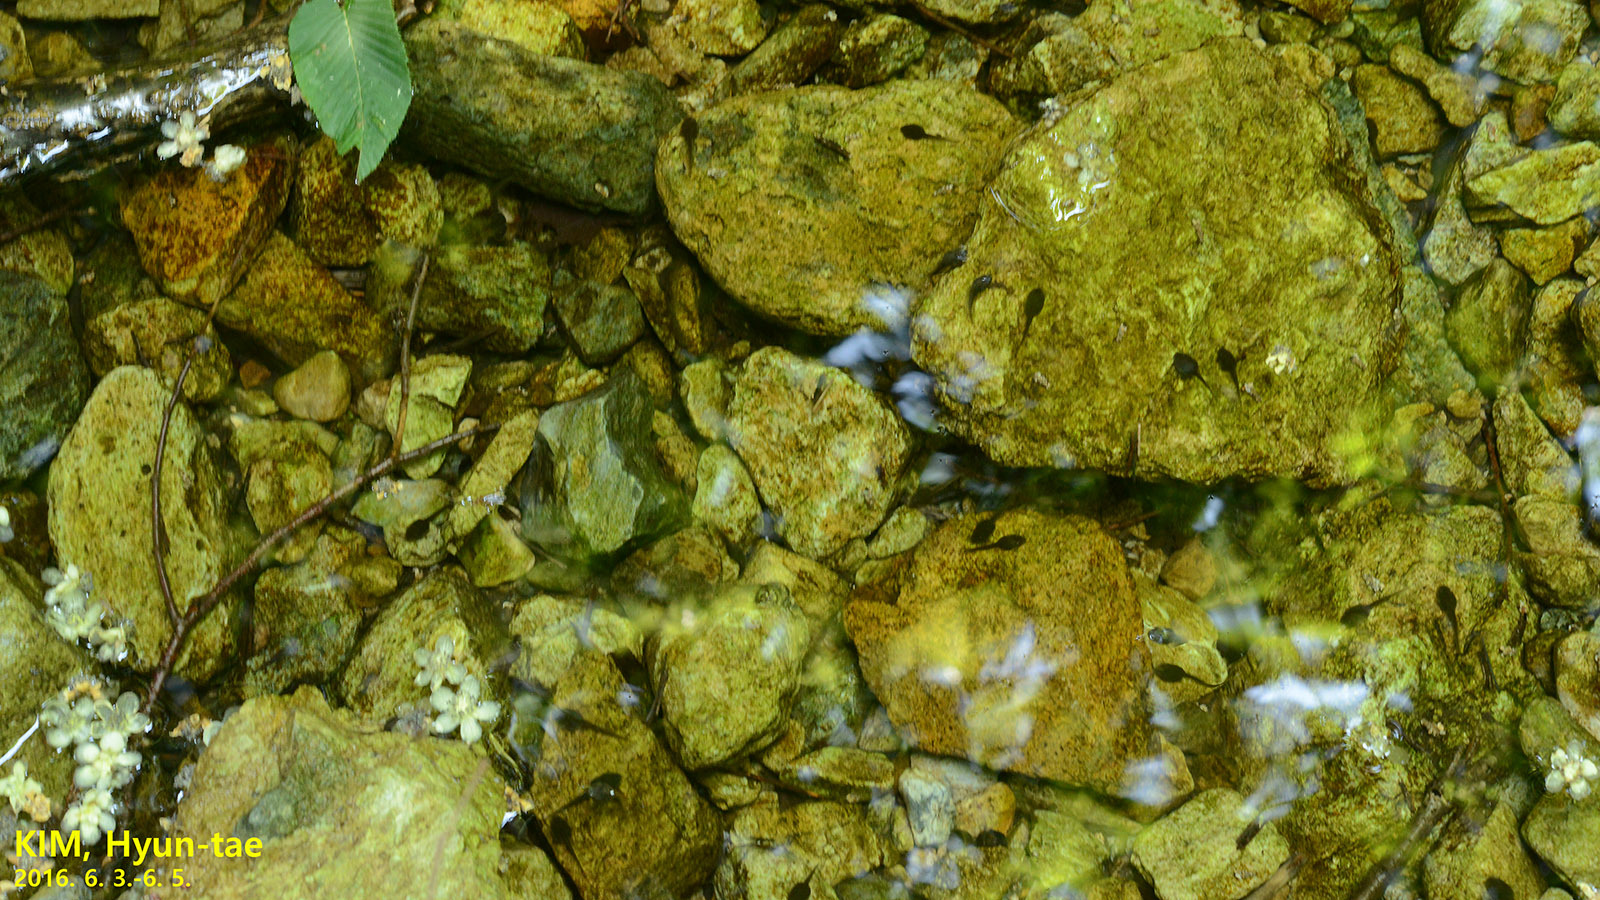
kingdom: Animalia
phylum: Chordata
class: Amphibia
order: Anura
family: Ranidae
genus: Rana
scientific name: Rana huanrenensis
